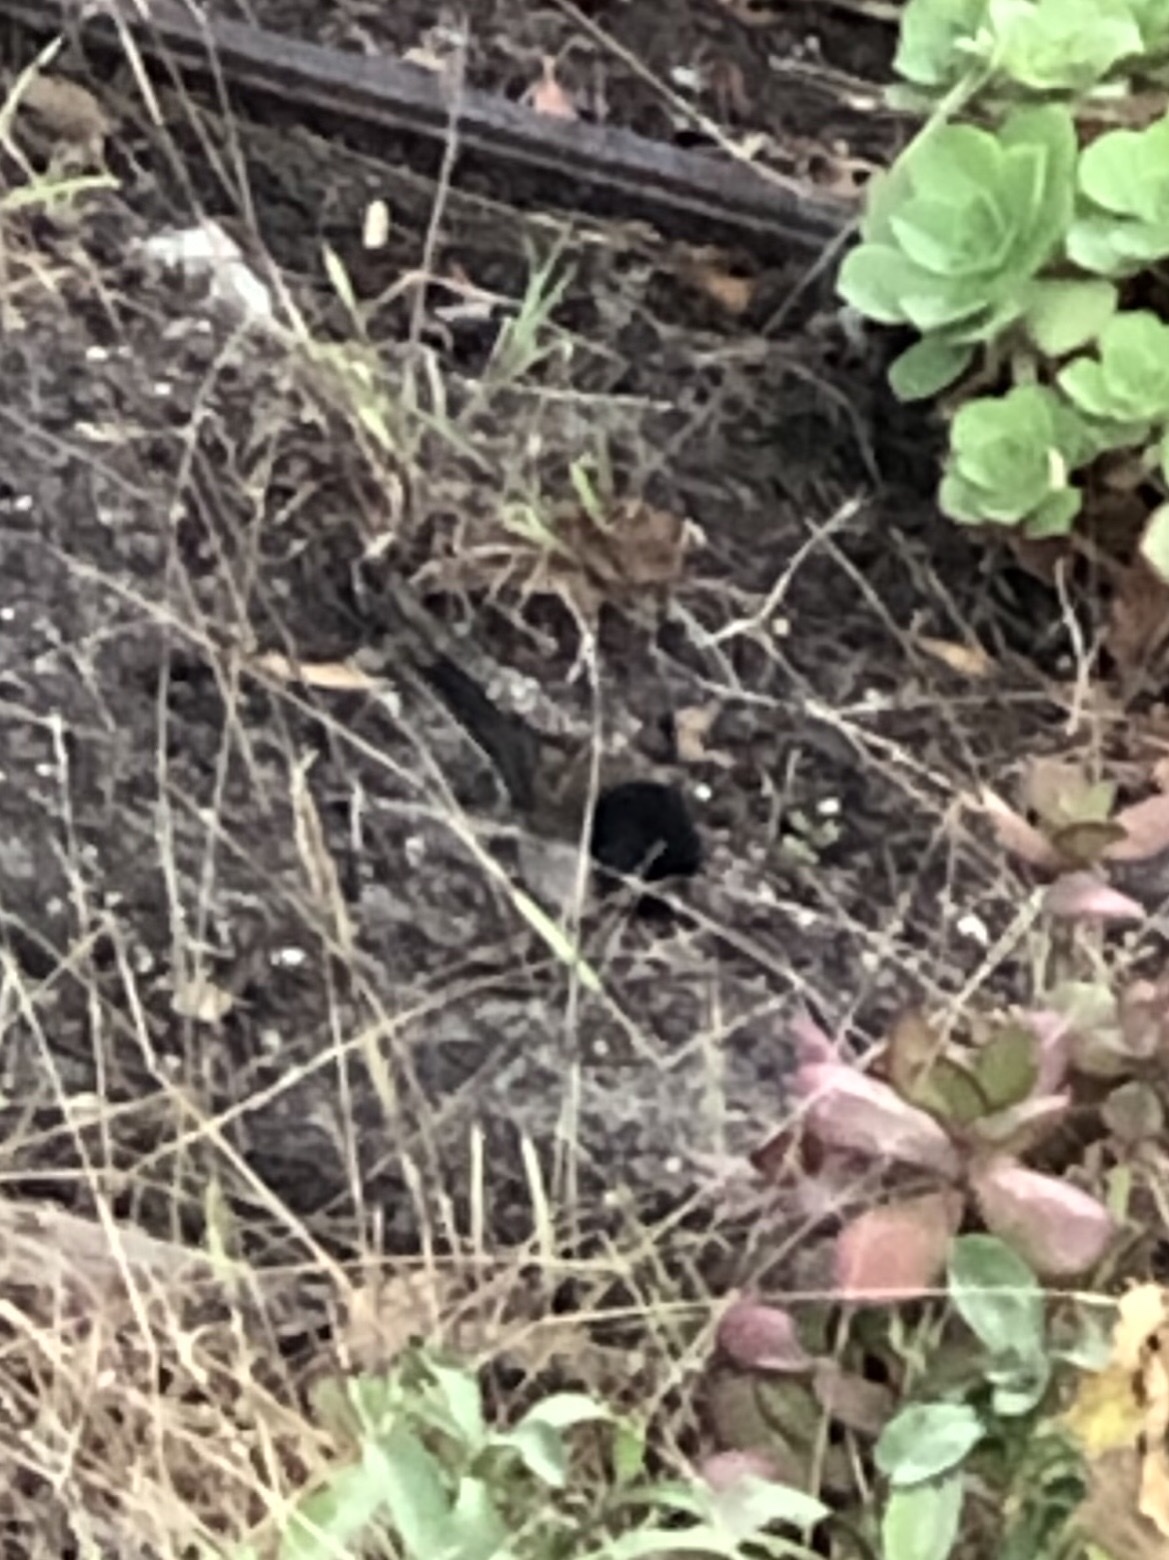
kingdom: Animalia
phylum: Chordata
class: Aves
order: Passeriformes
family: Passerellidae
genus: Junco
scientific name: Junco hyemalis
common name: Dark-eyed junco
